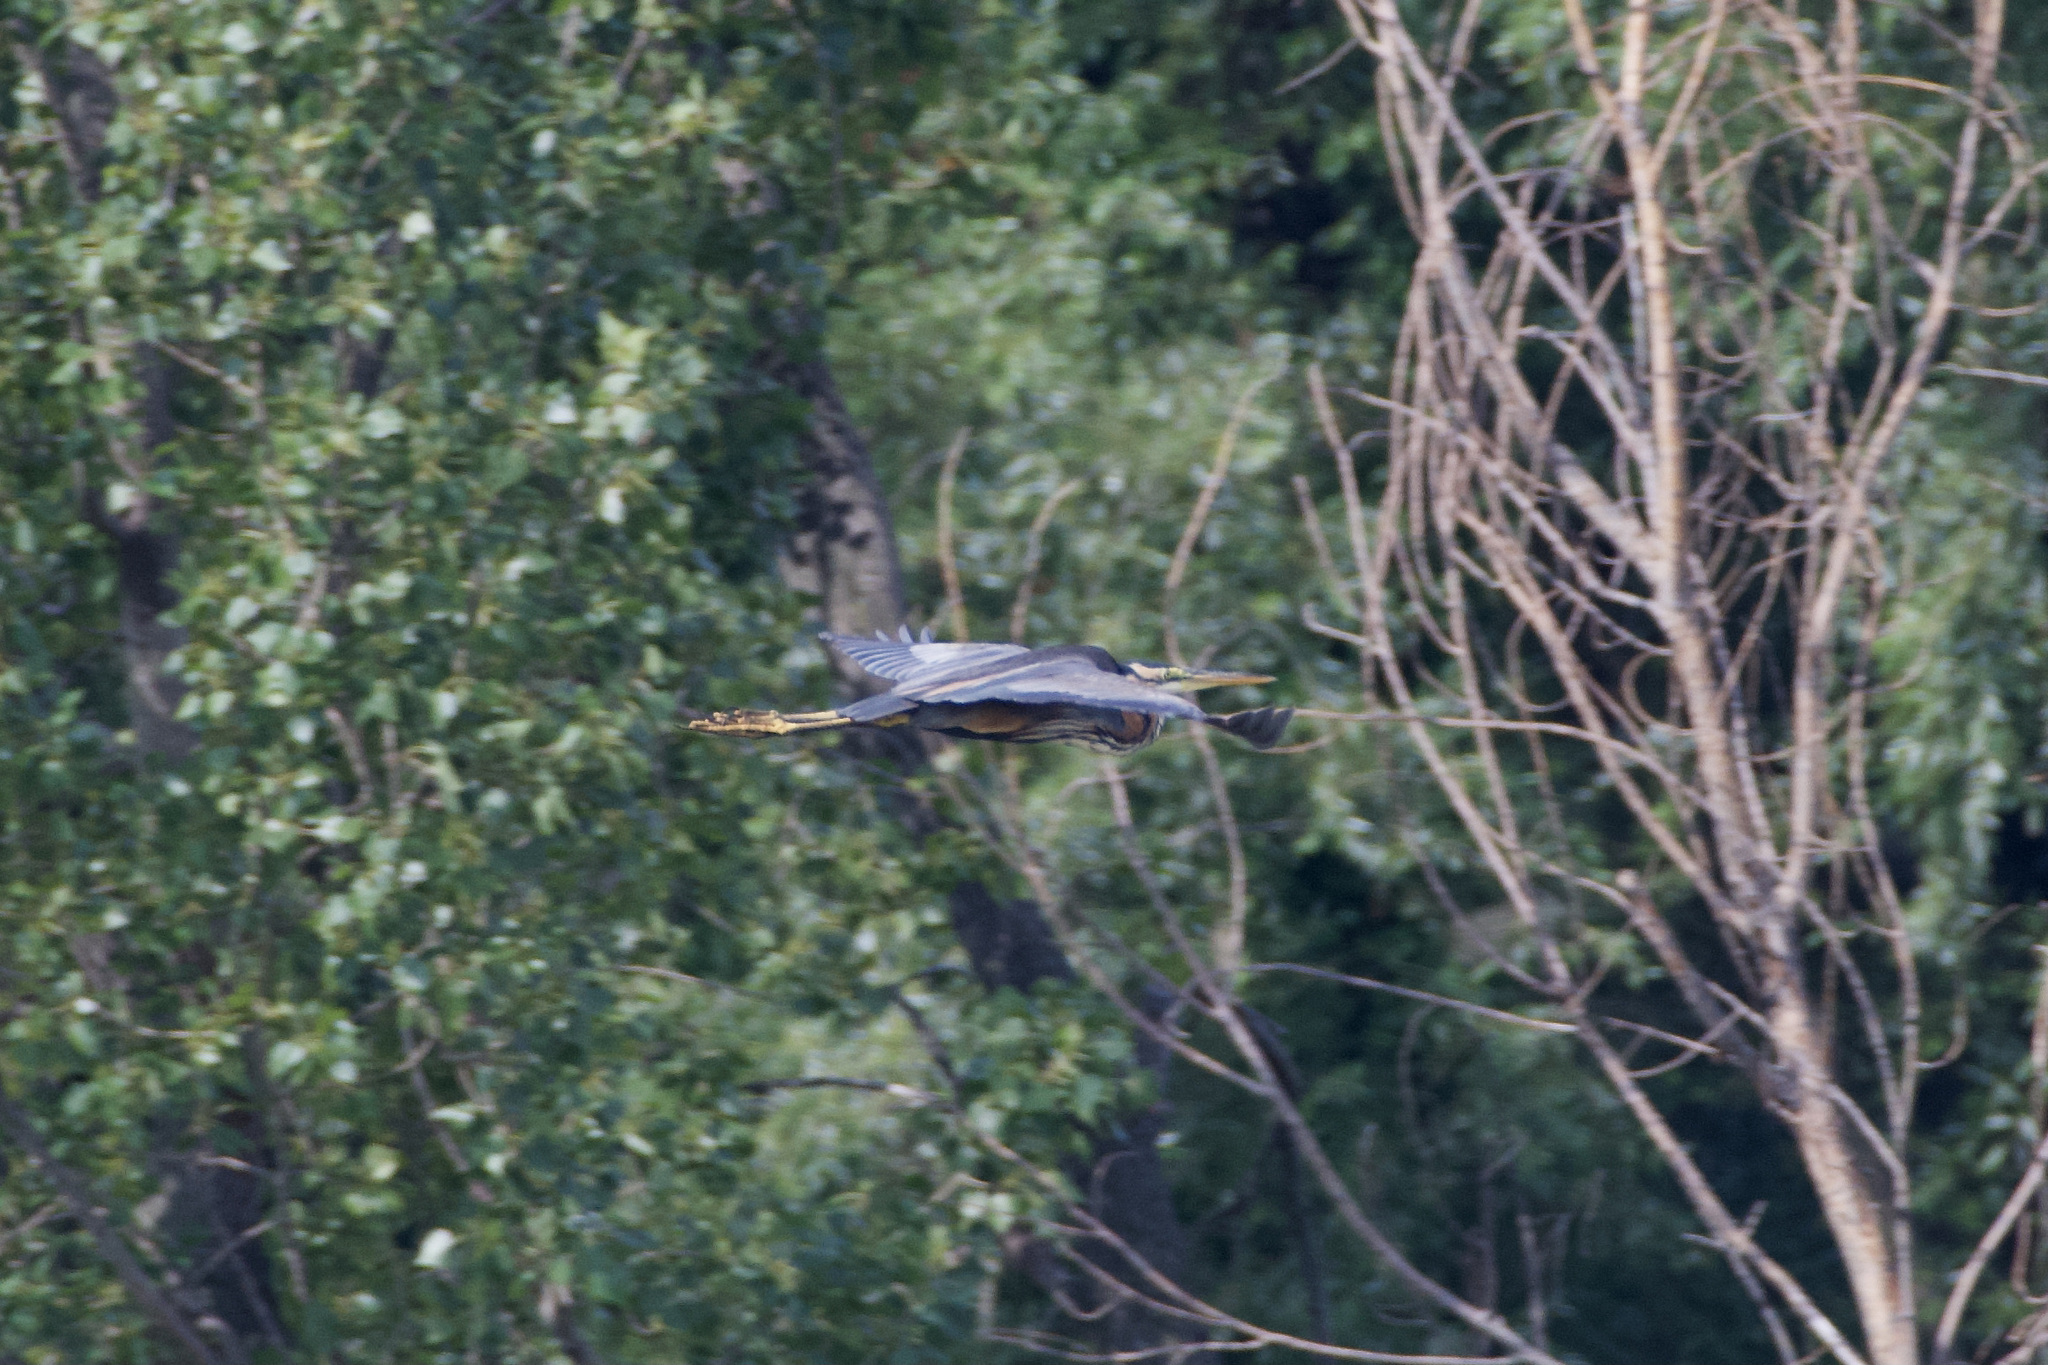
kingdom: Animalia
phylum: Chordata
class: Aves
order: Pelecaniformes
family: Ardeidae
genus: Ardea
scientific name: Ardea purpurea
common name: Purple heron
